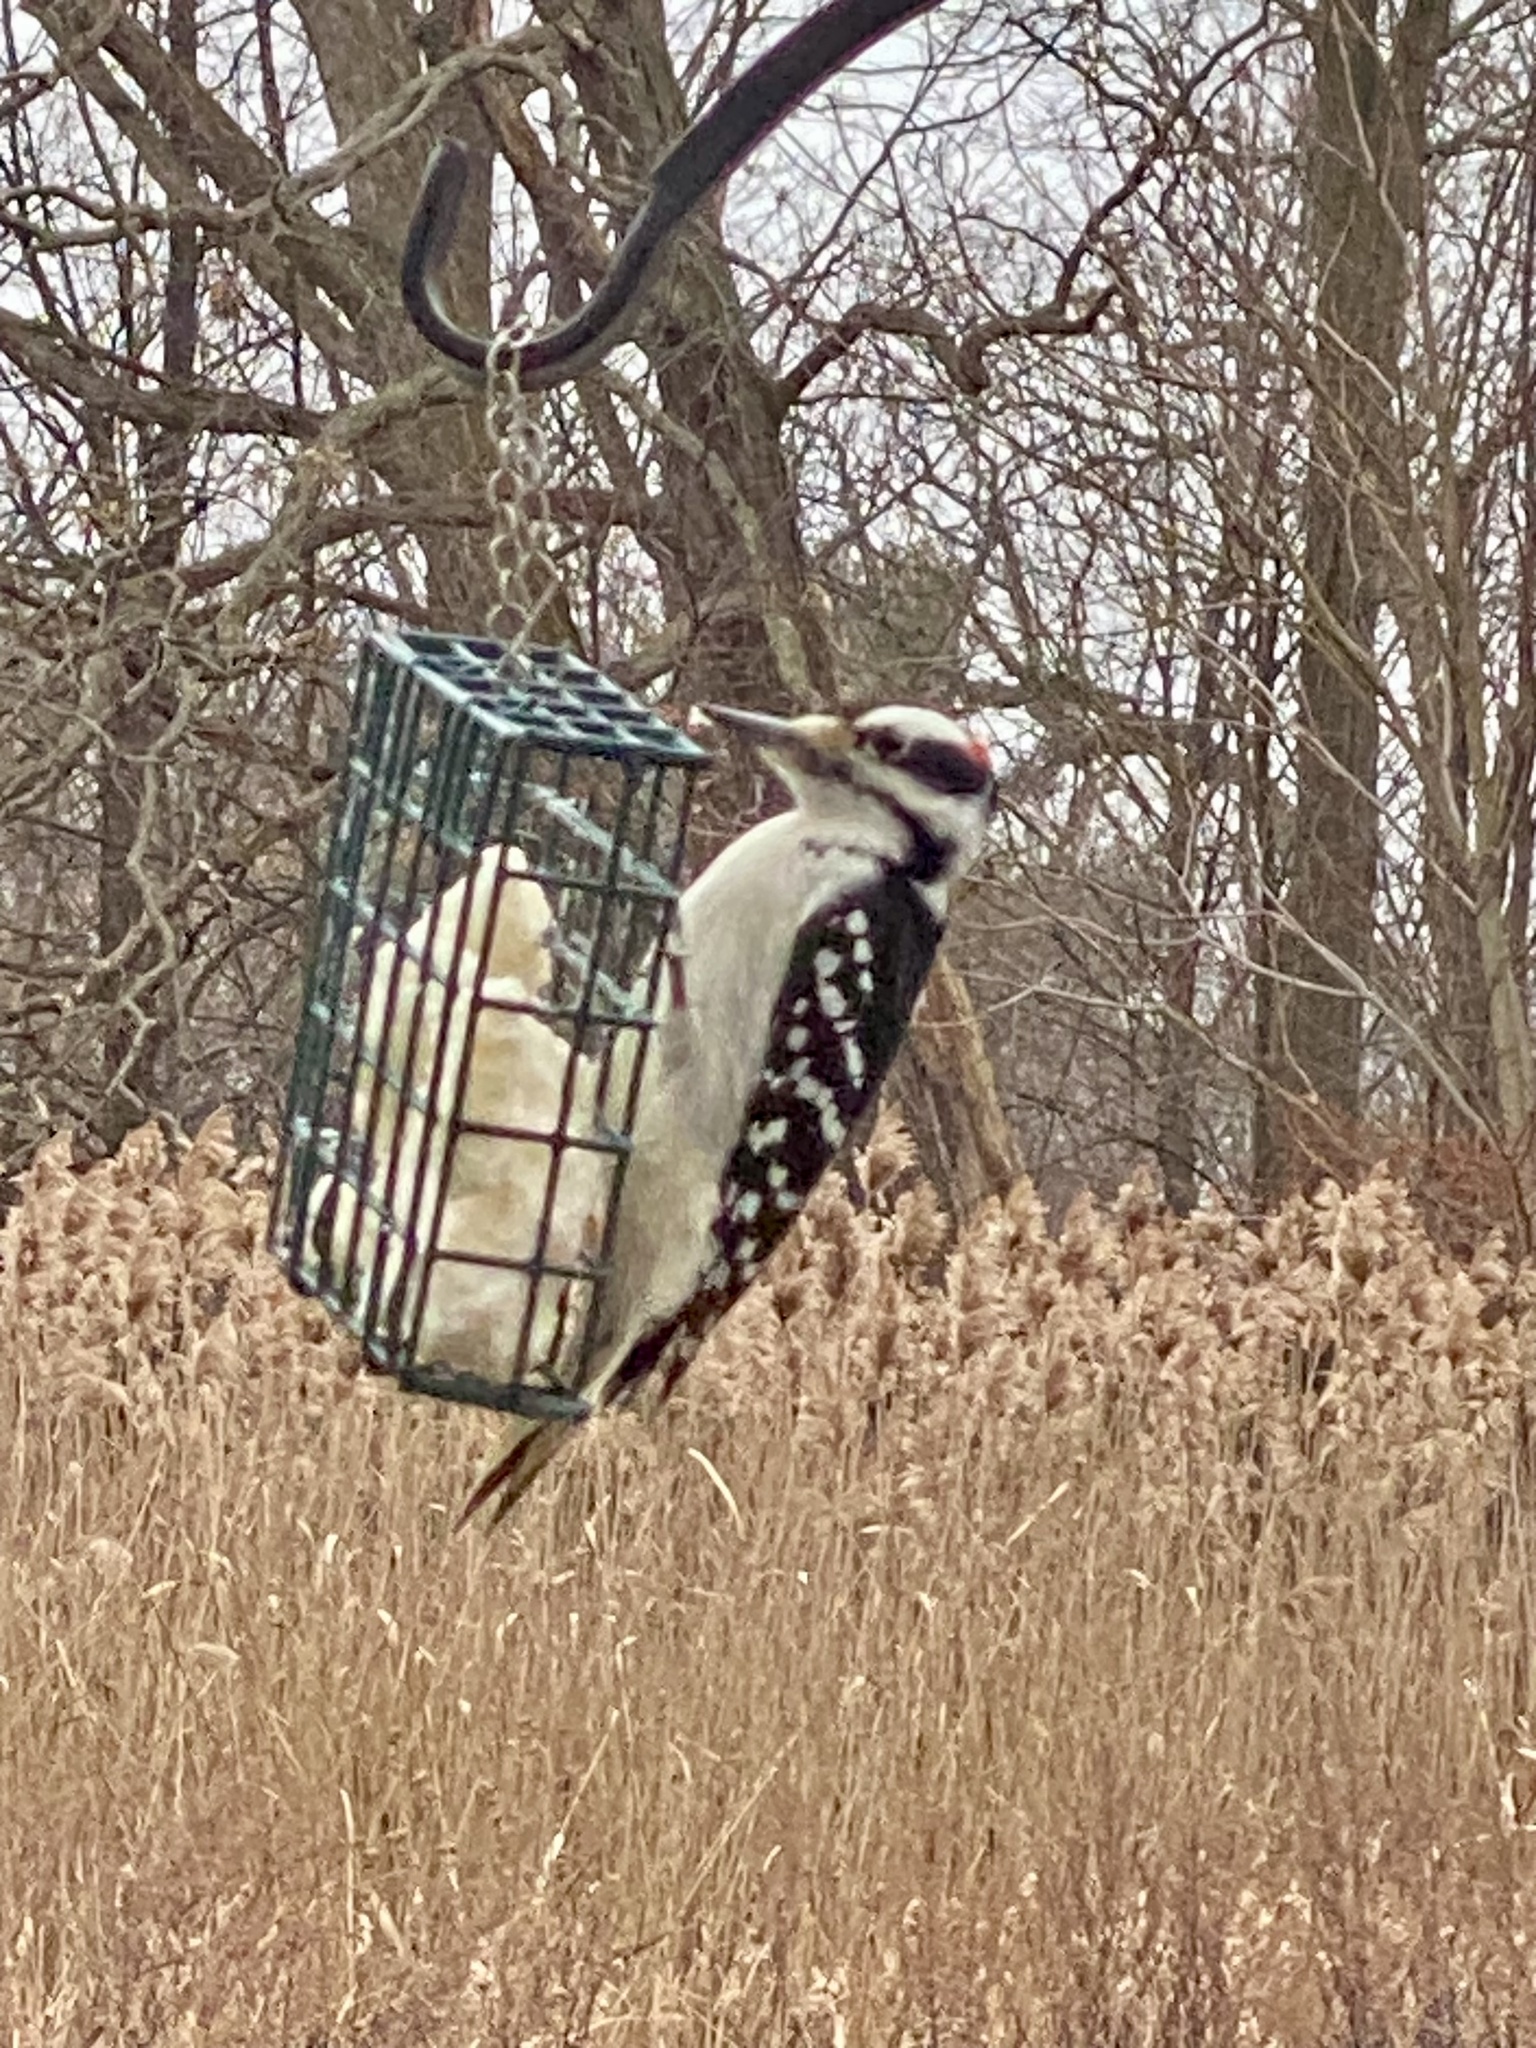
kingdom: Animalia
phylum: Chordata
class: Aves
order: Piciformes
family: Picidae
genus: Leuconotopicus
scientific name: Leuconotopicus villosus
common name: Hairy woodpecker
